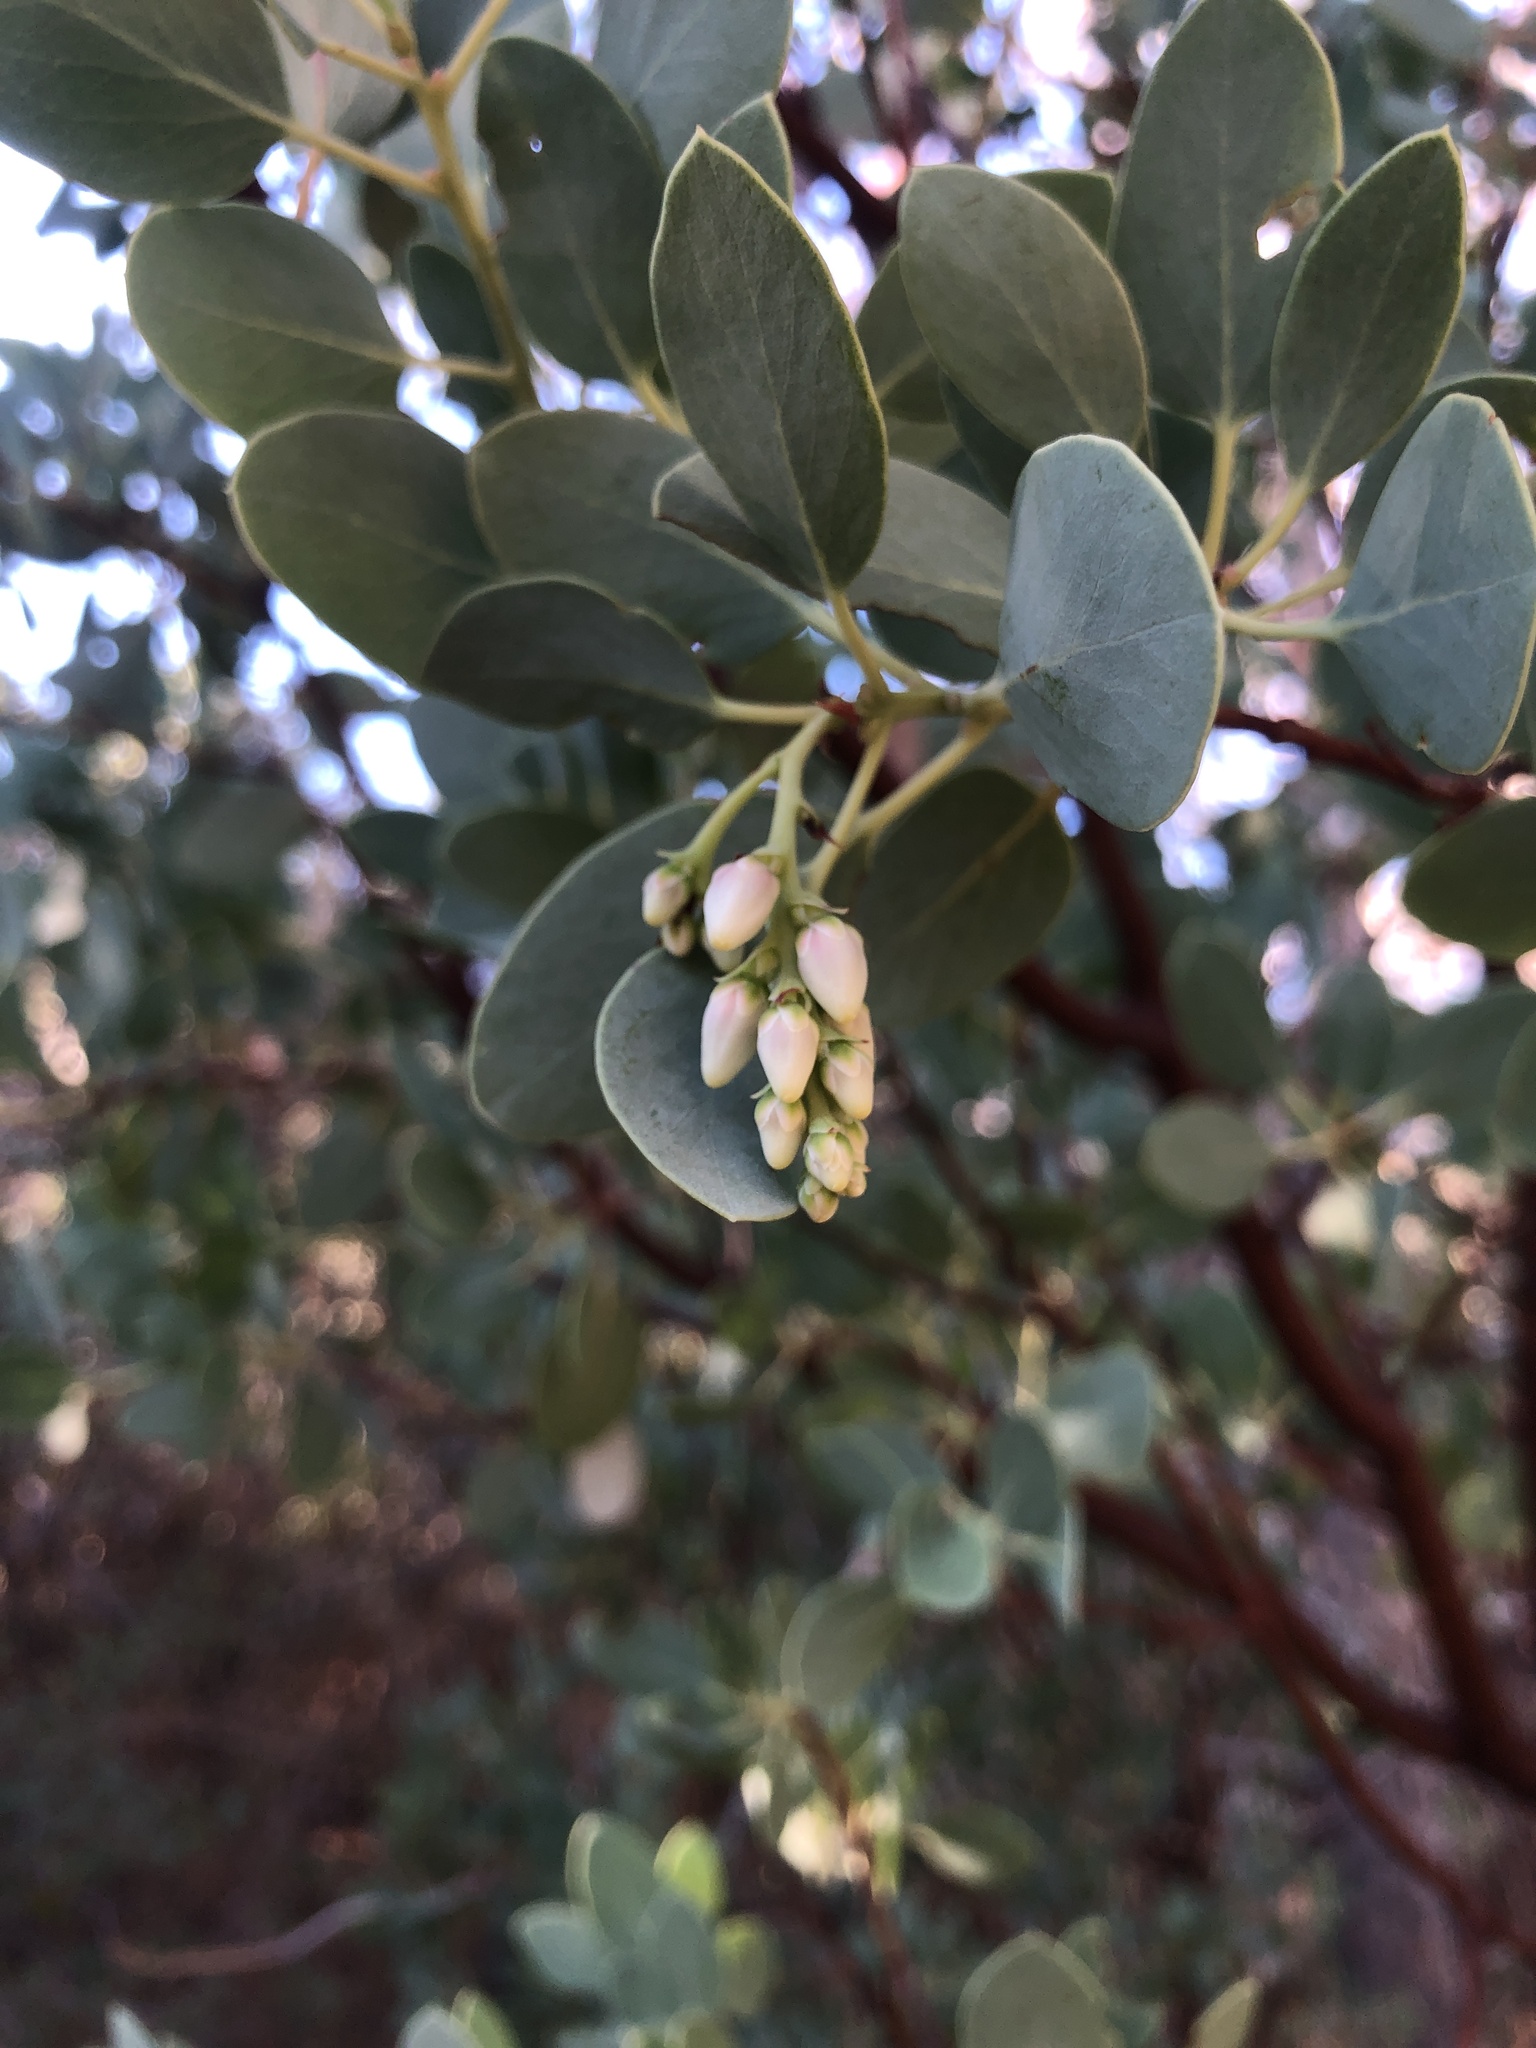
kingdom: Plantae
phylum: Tracheophyta
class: Magnoliopsida
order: Ericales
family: Ericaceae
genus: Arctostaphylos
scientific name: Arctostaphylos glauca
